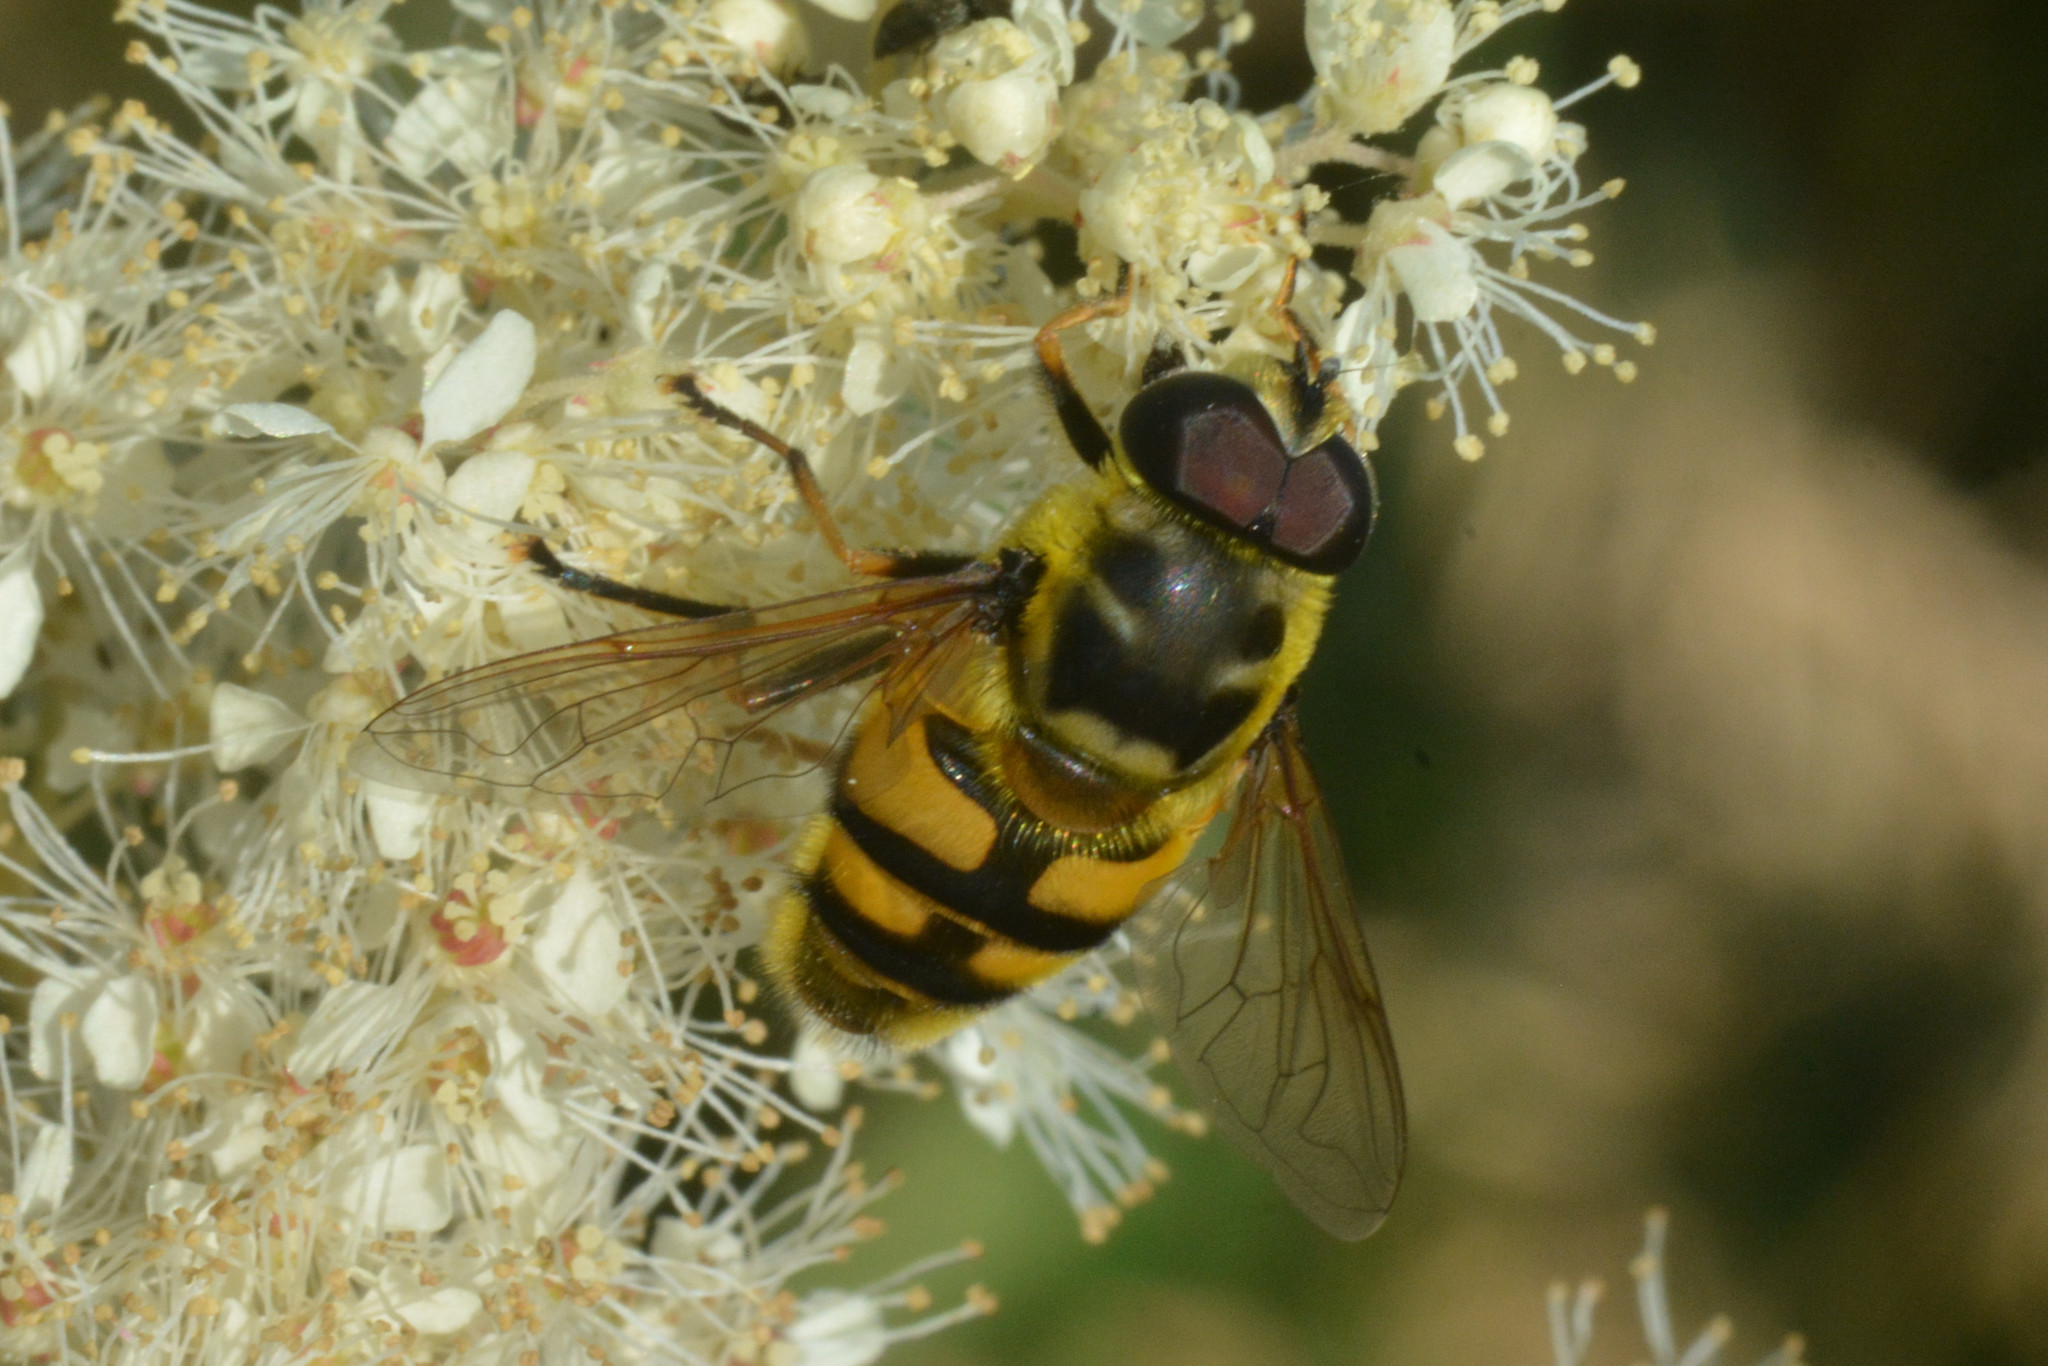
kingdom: Animalia
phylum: Arthropoda
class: Insecta
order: Diptera
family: Syrphidae
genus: Myathropa
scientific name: Myathropa florea
